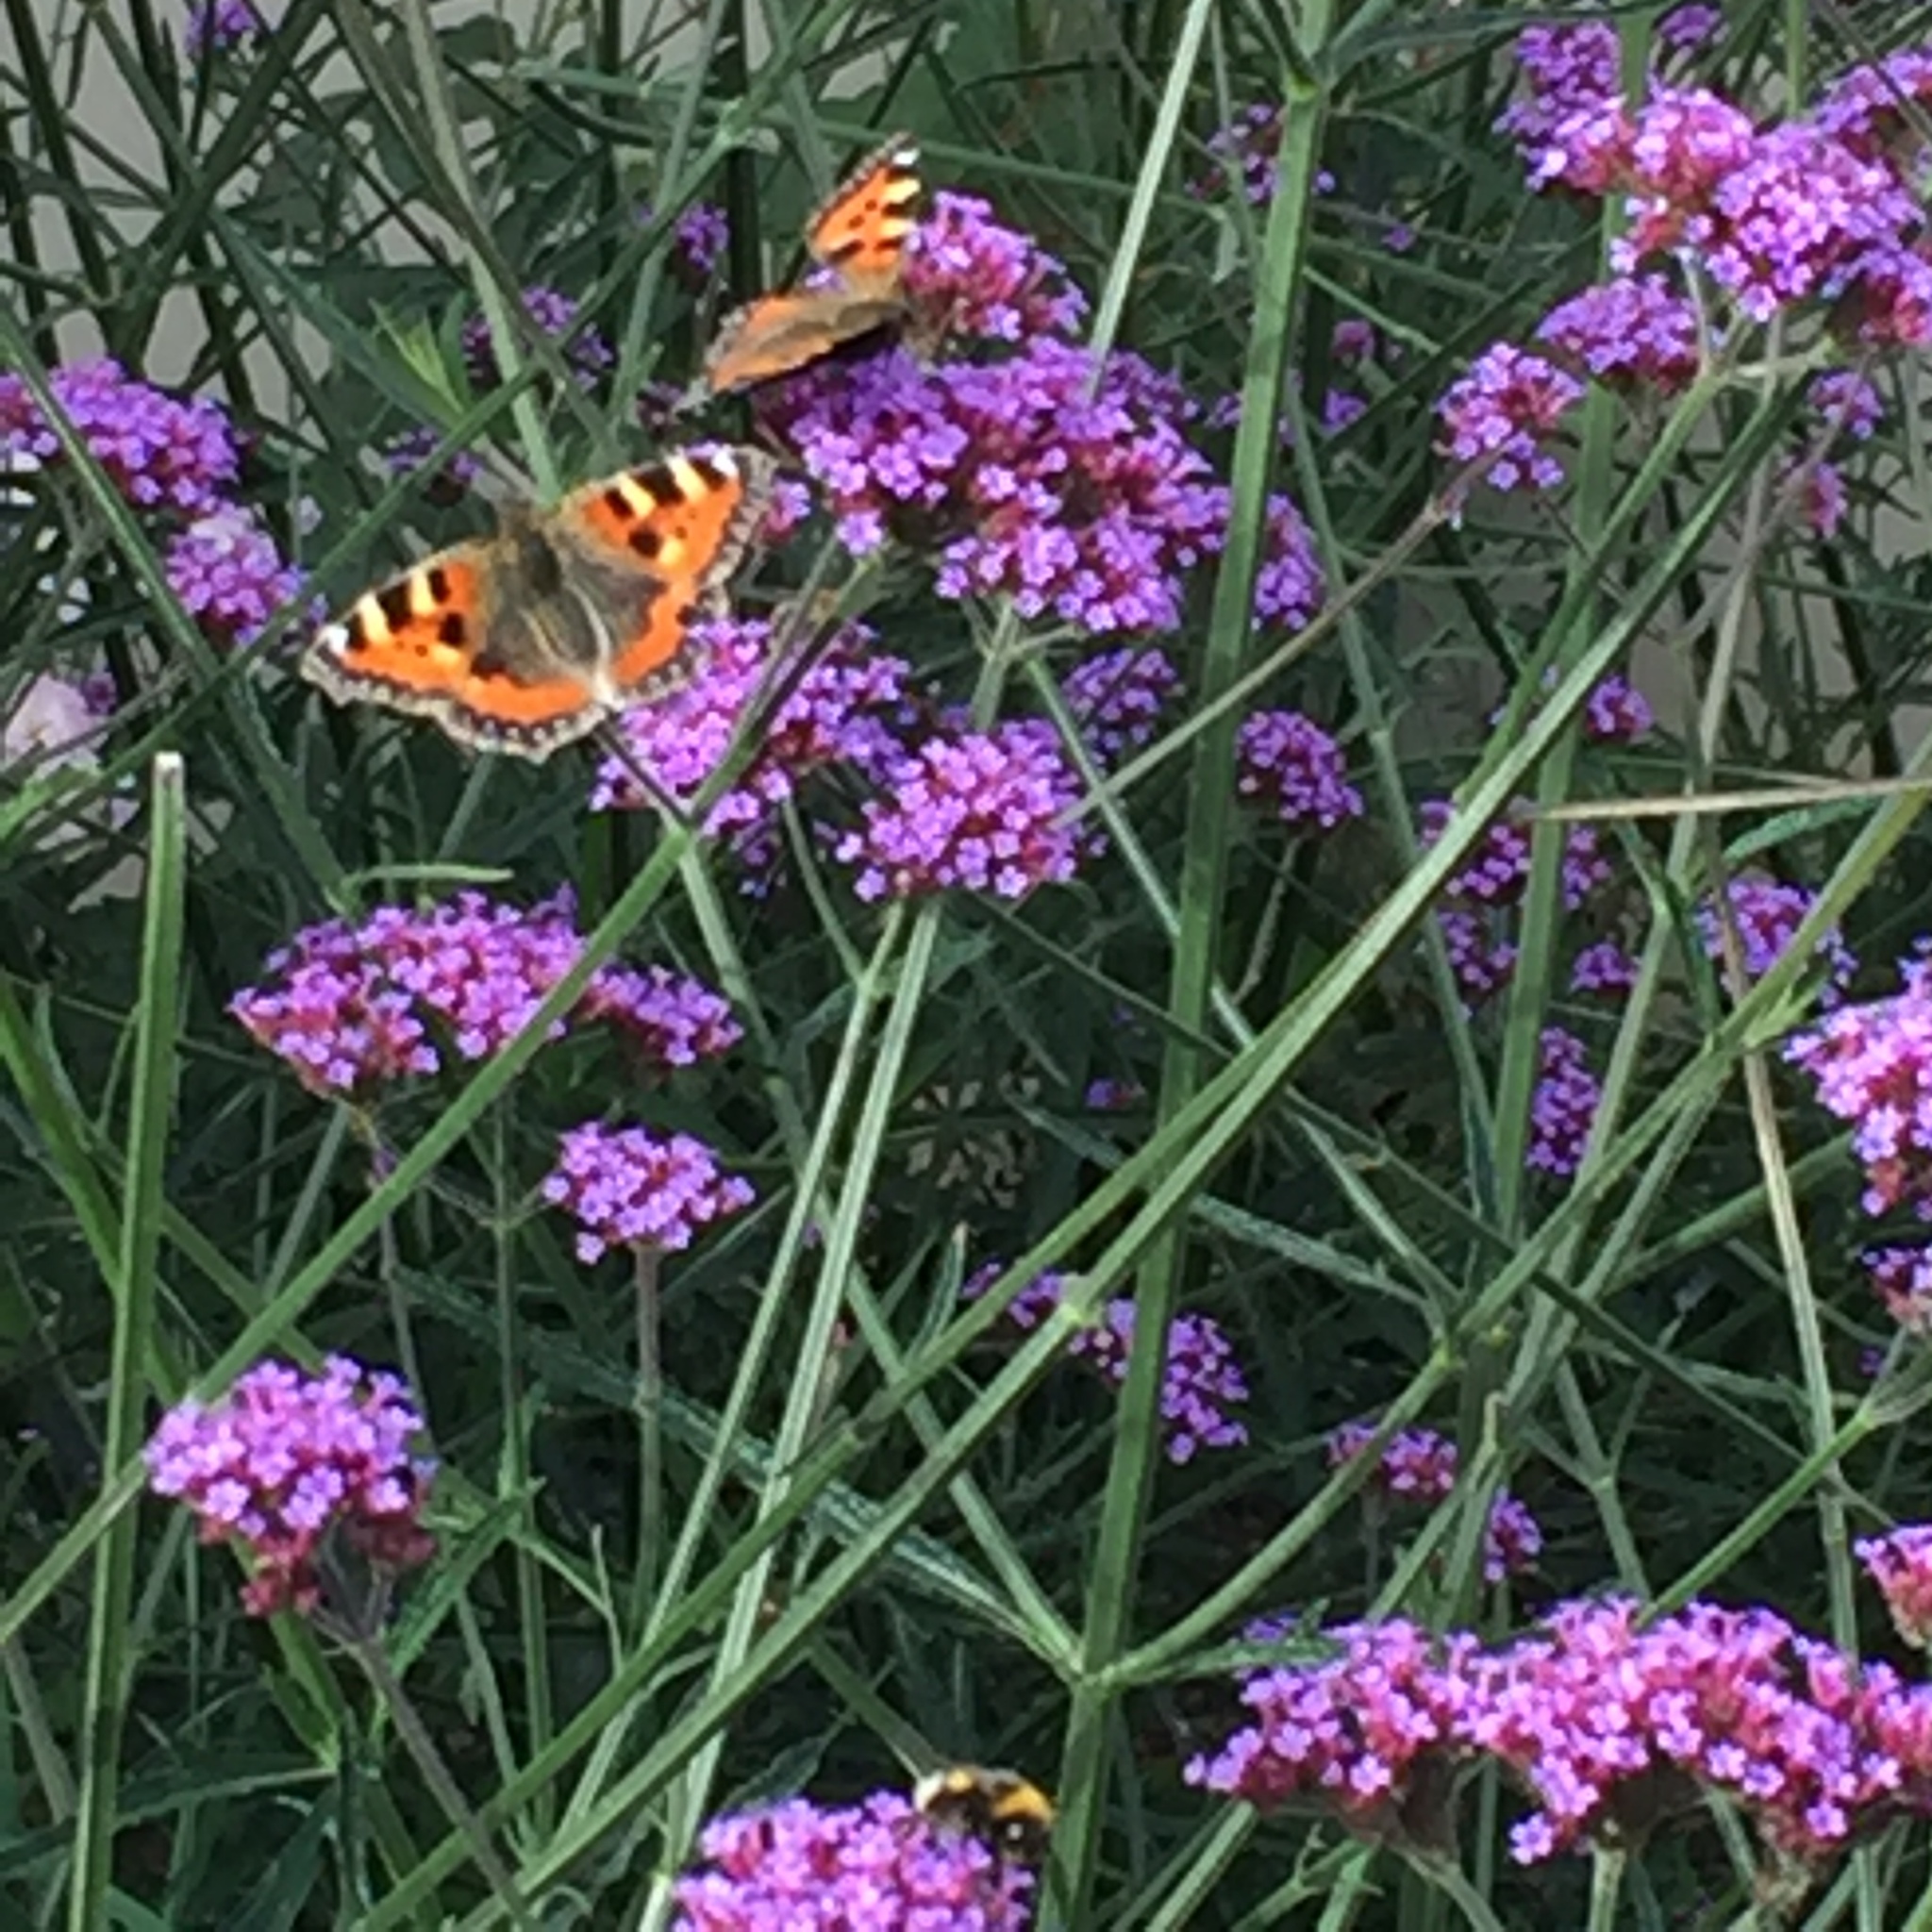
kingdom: Animalia
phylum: Arthropoda
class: Insecta
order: Lepidoptera
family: Nymphalidae
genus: Aglais
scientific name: Aglais urticae
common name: Small tortoiseshell
